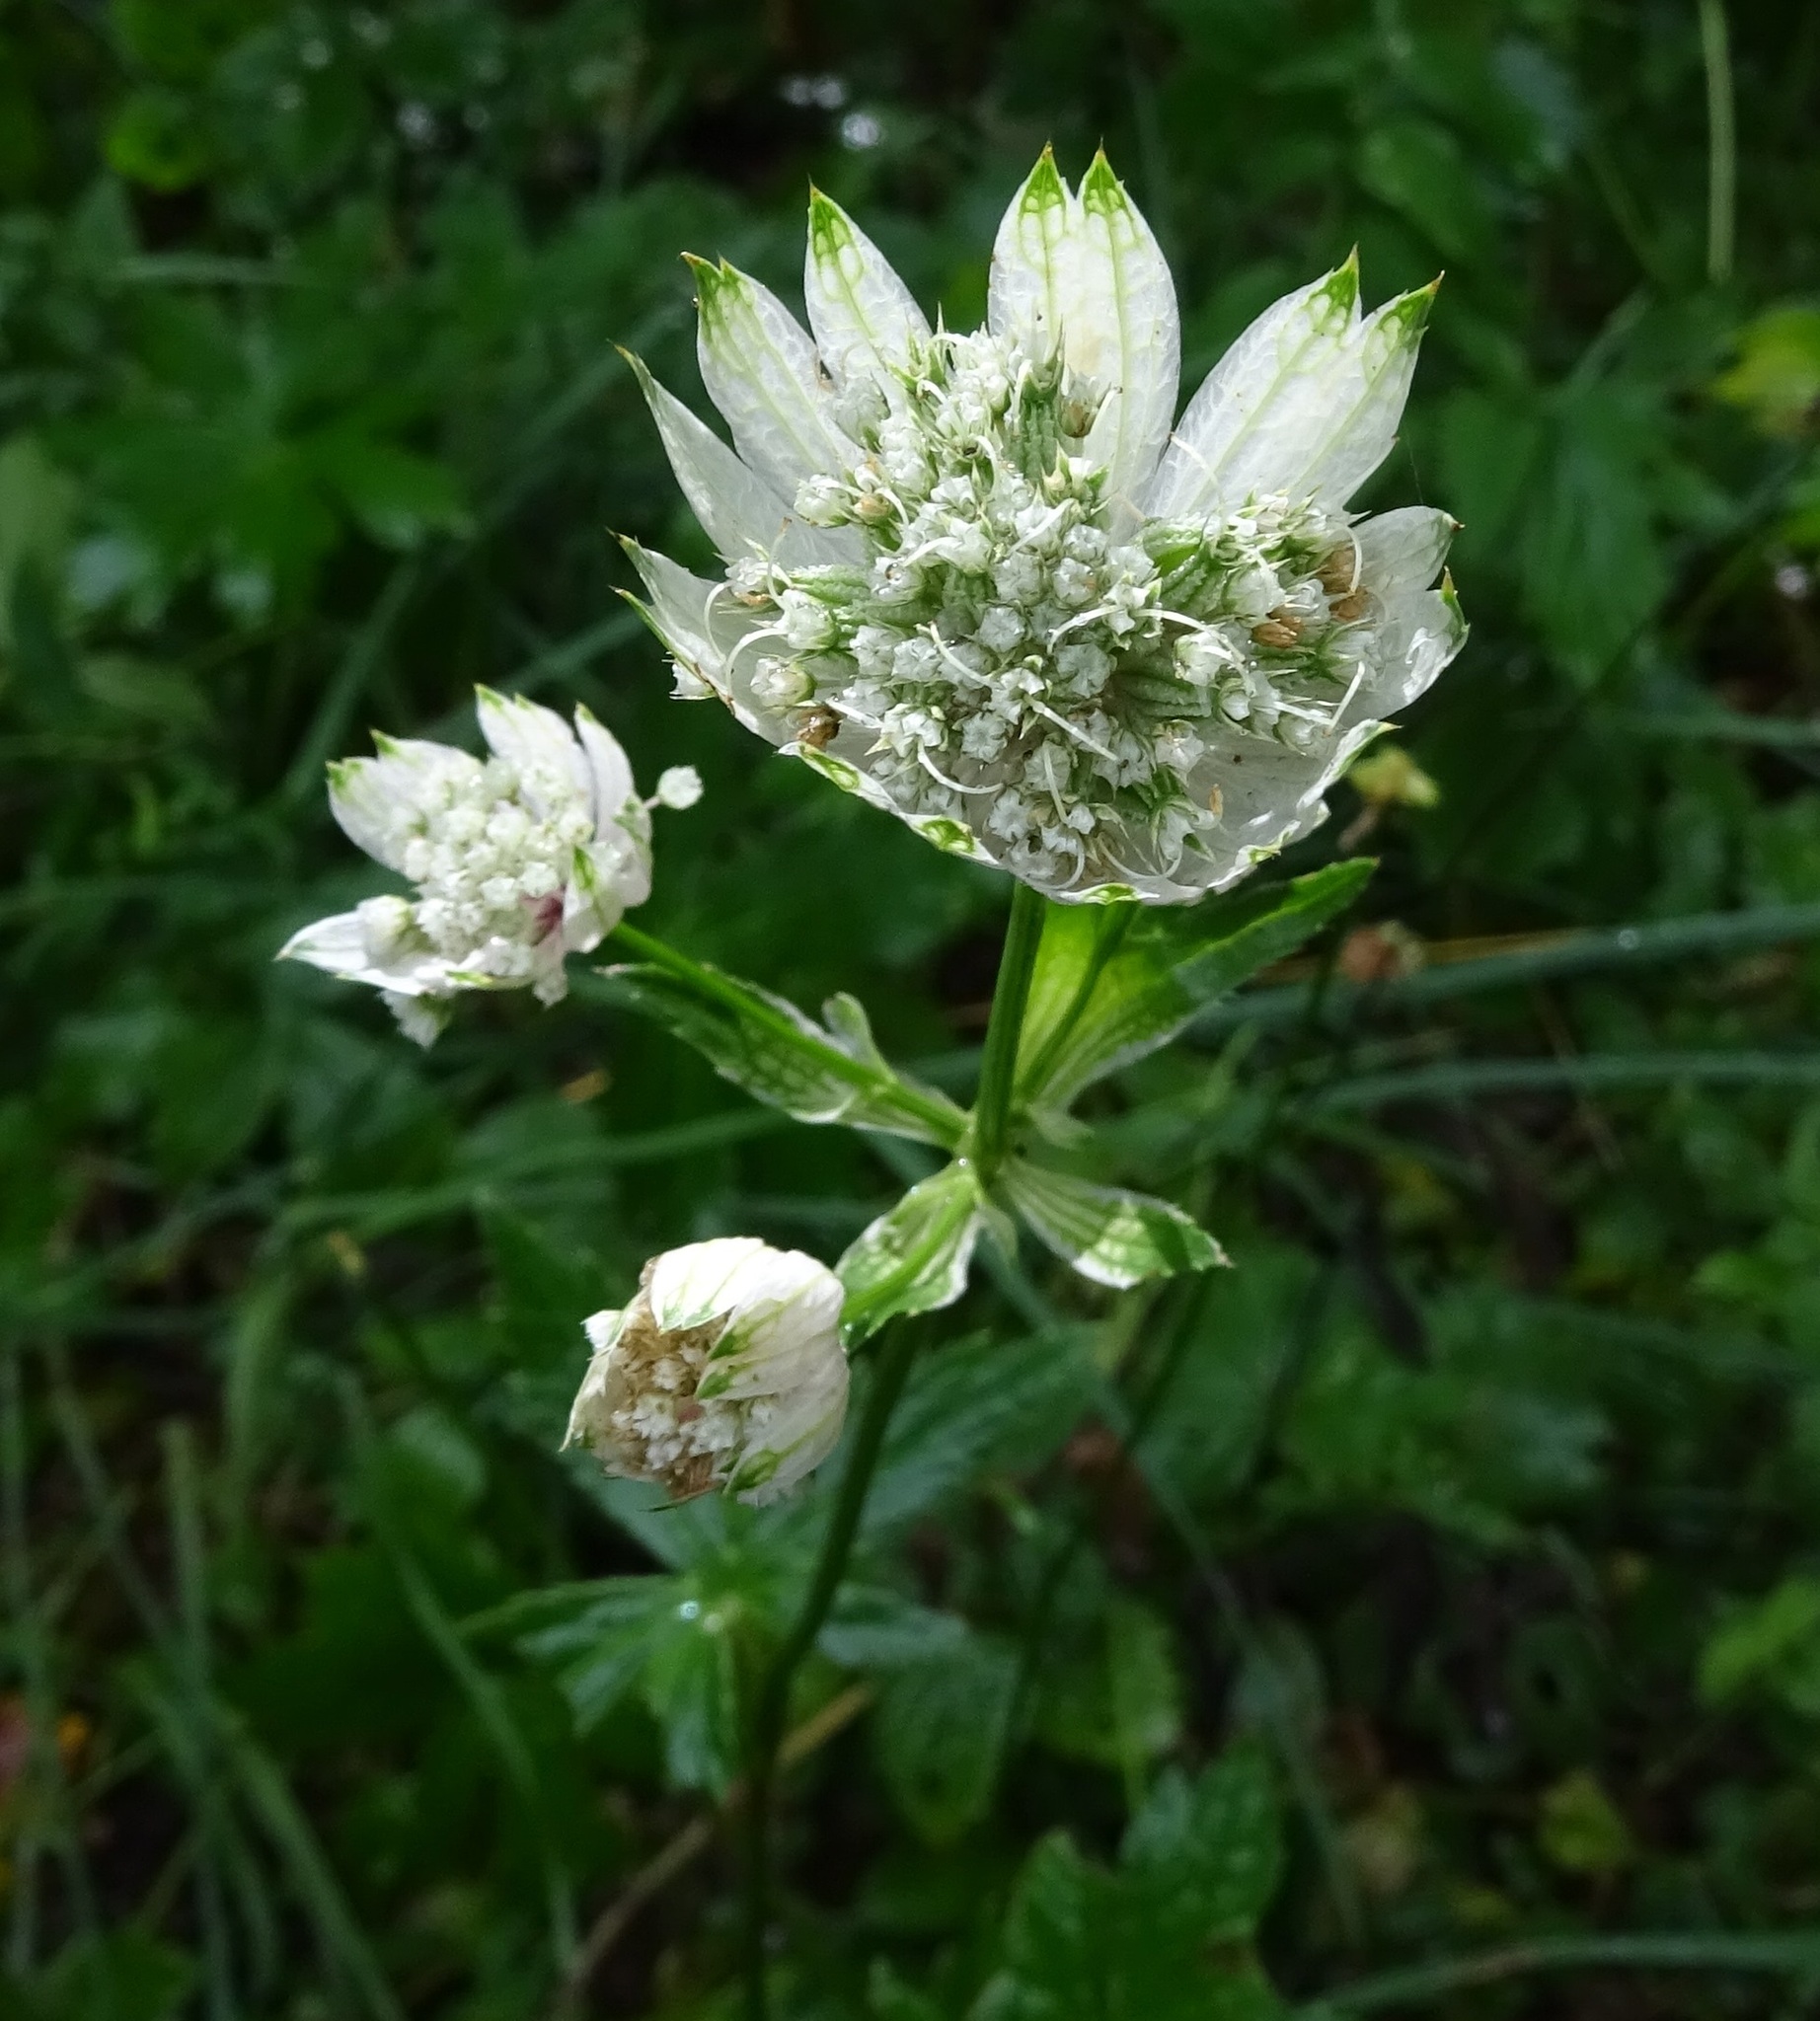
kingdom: Plantae
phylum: Tracheophyta
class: Magnoliopsida
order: Apiales
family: Apiaceae
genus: Astrantia
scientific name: Astrantia major
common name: Greater masterwort
